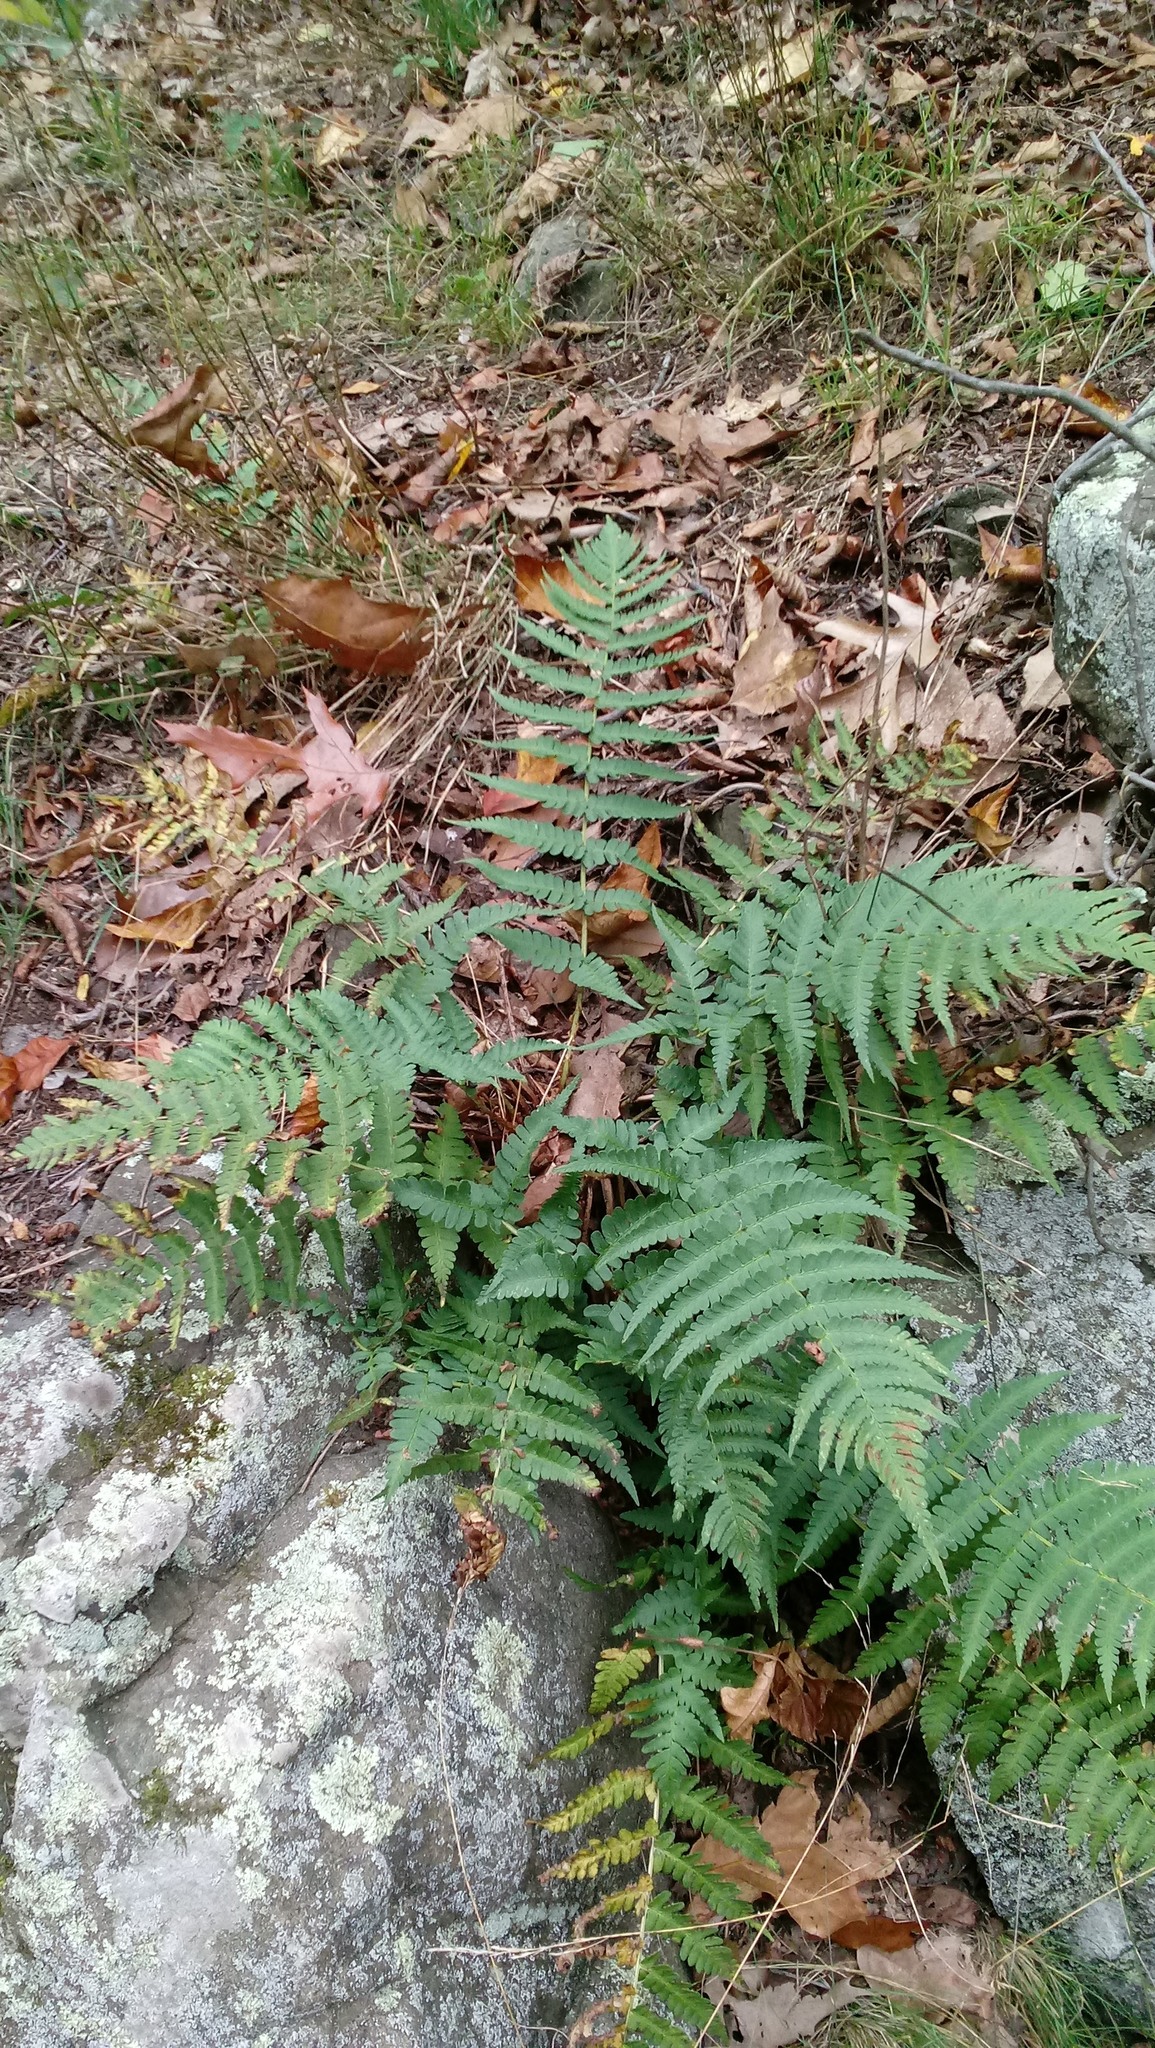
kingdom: Plantae
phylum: Tracheophyta
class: Polypodiopsida
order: Polypodiales
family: Dryopteridaceae
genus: Dryopteris
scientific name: Dryopteris marginalis
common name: Marginal wood fern
